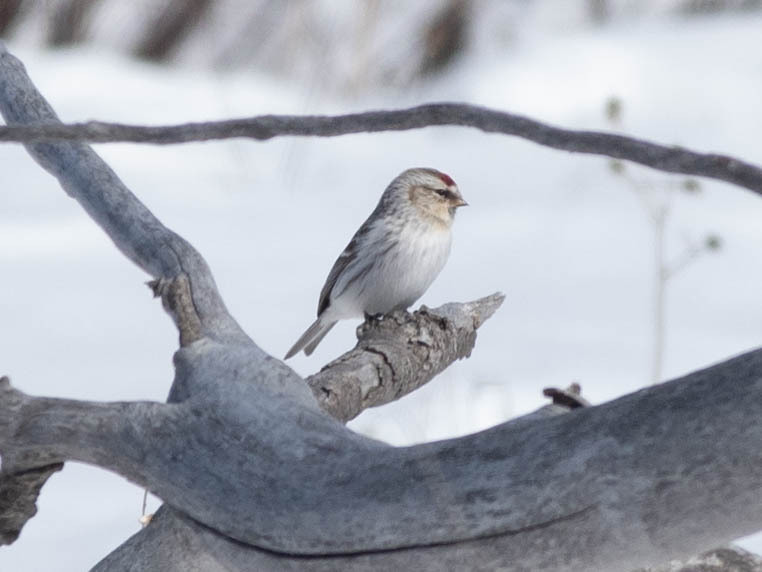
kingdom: Animalia
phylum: Chordata
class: Aves
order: Passeriformes
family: Fringillidae
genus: Acanthis
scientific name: Acanthis hornemanni
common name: Arctic redpoll
